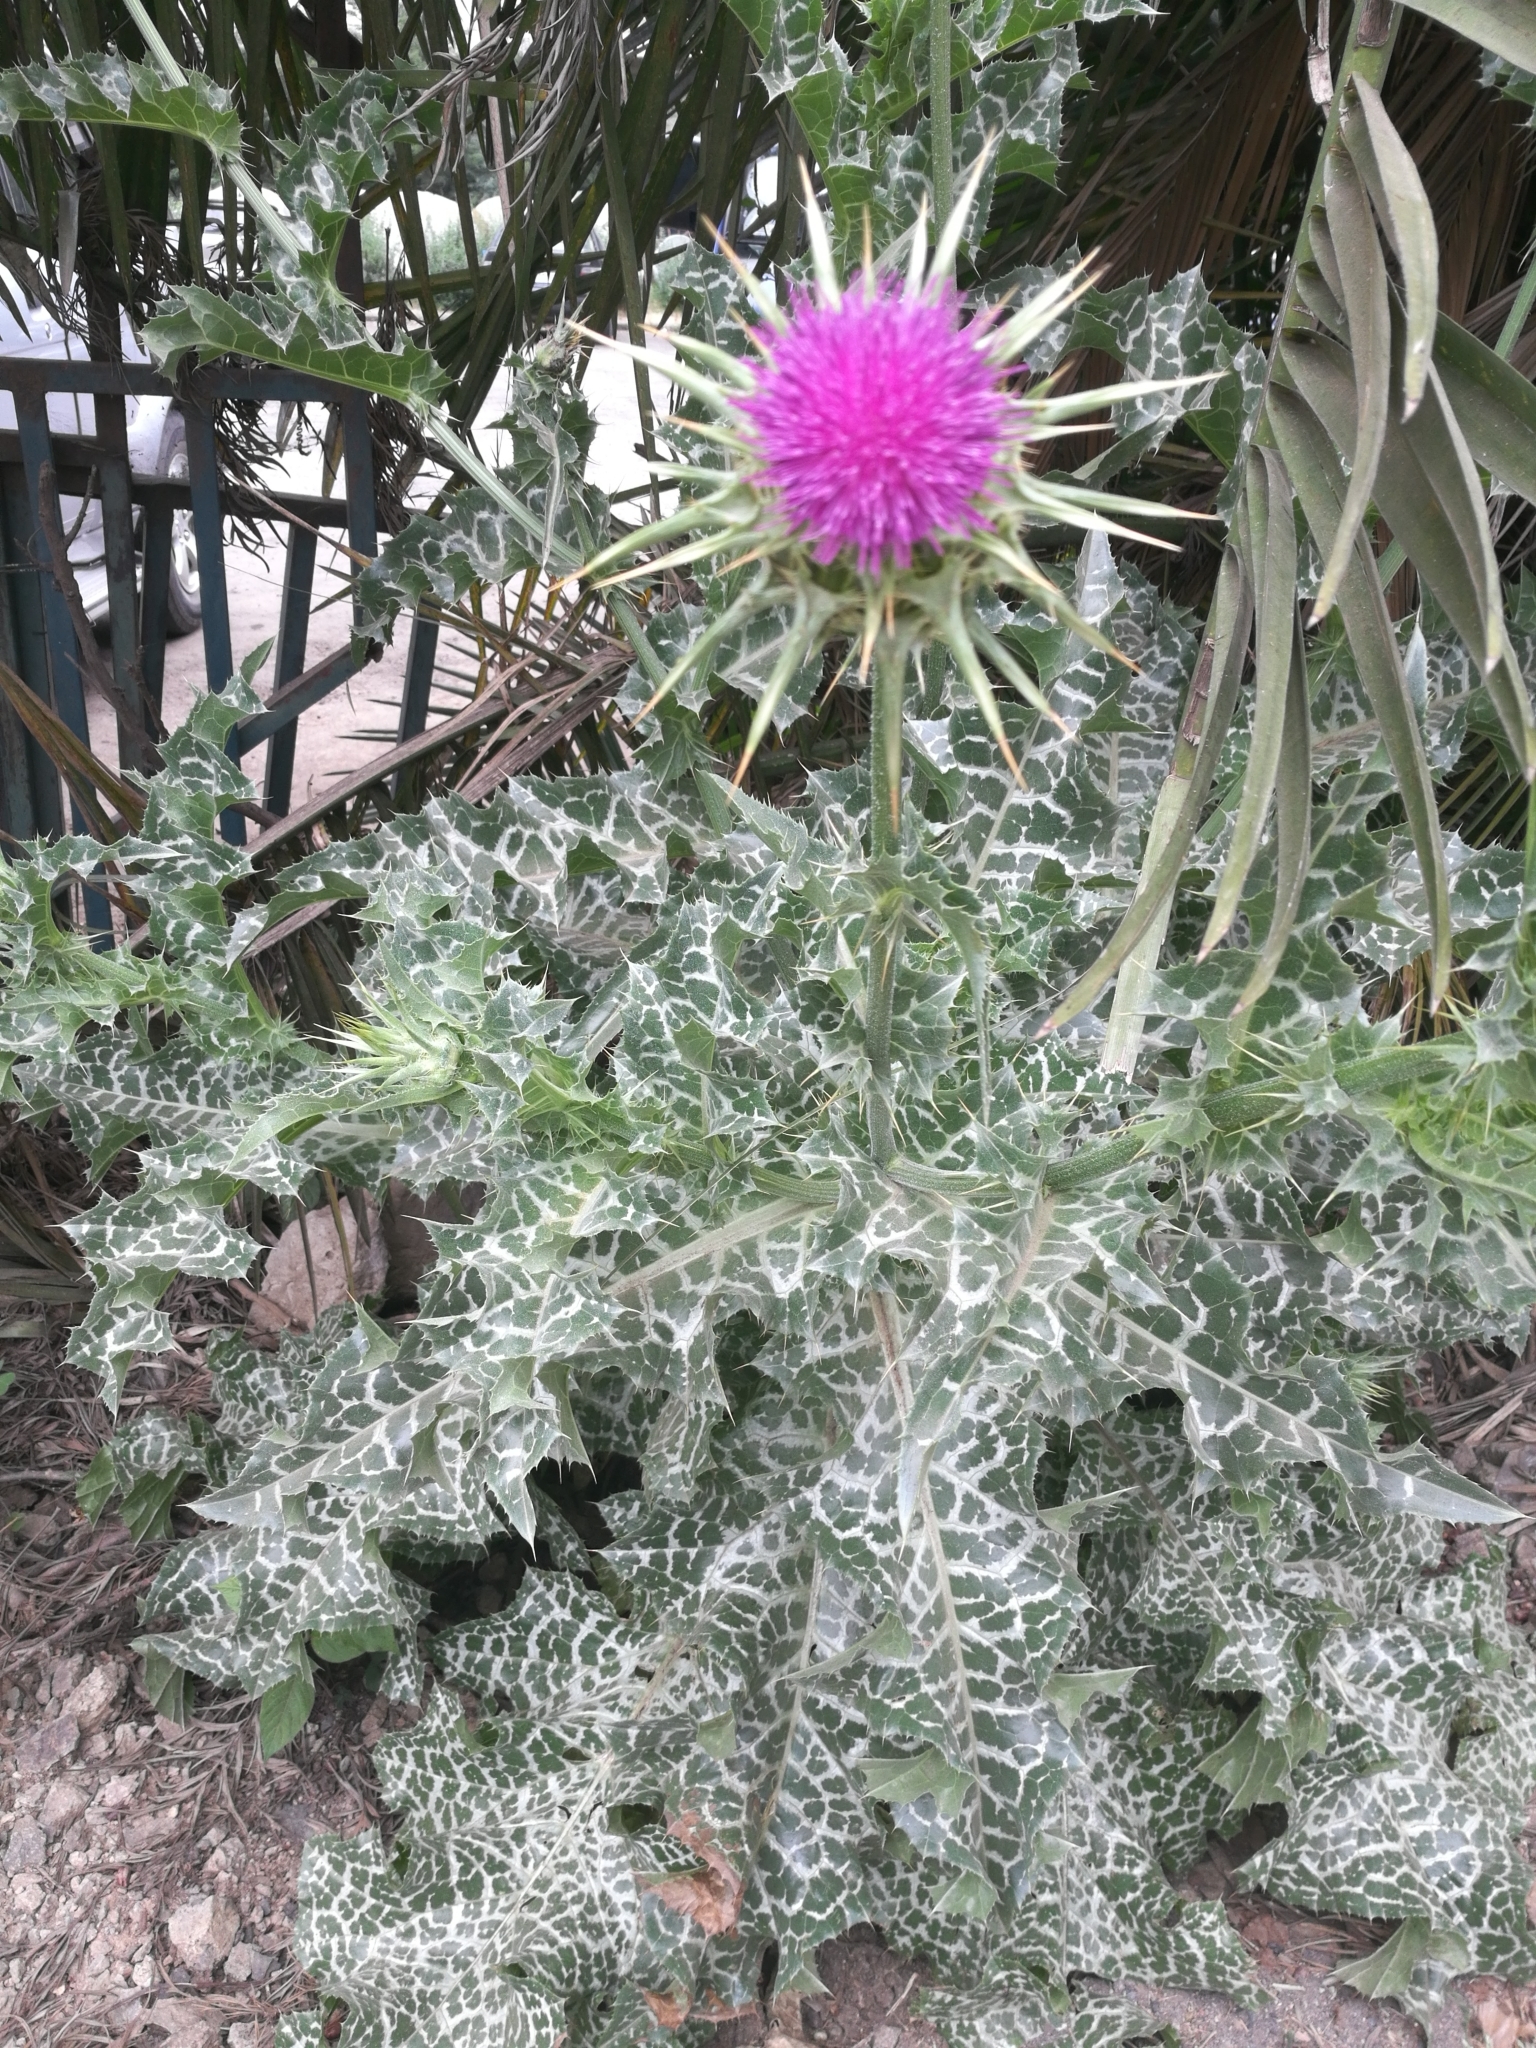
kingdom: Plantae
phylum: Tracheophyta
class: Magnoliopsida
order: Asterales
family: Asteraceae
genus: Silybum
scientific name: Silybum marianum
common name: Milk thistle
